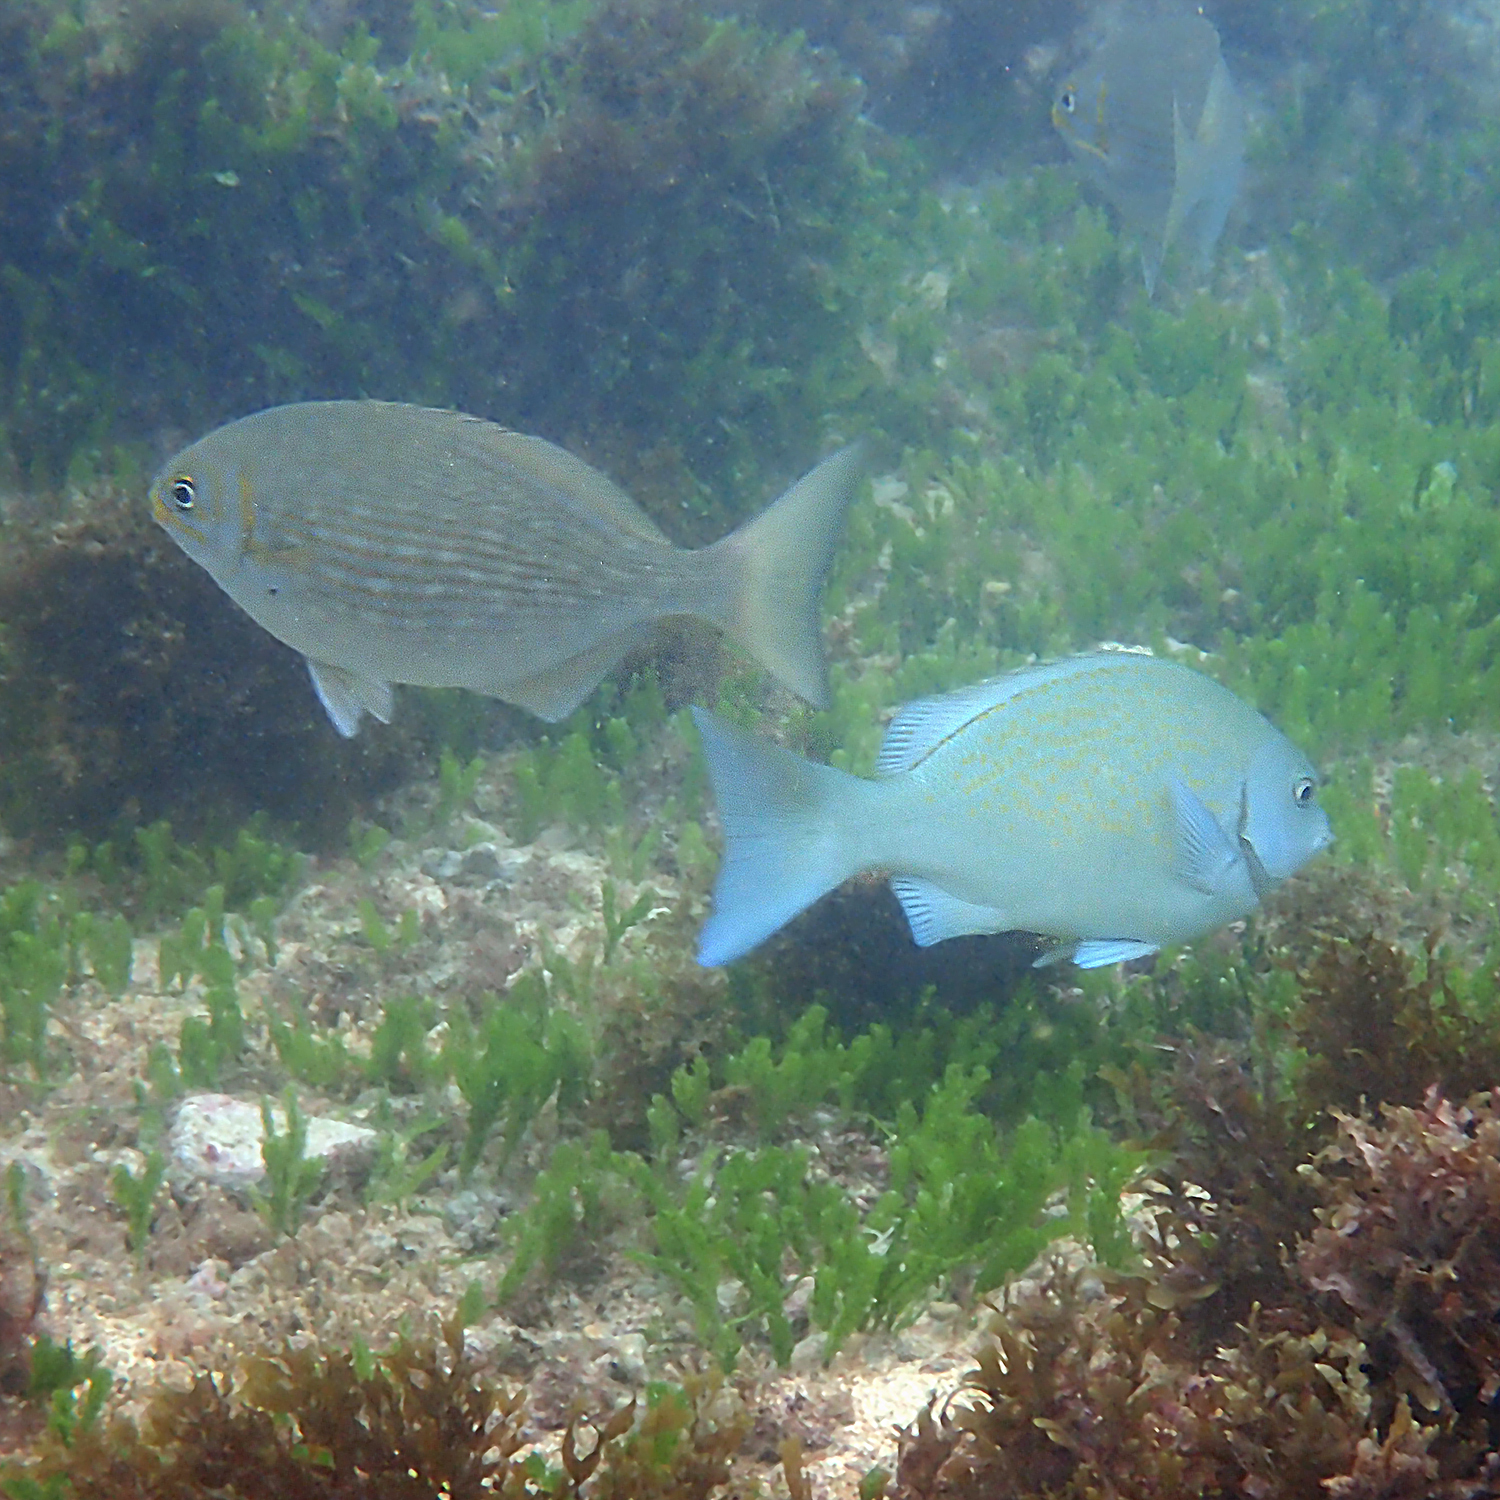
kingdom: Animalia
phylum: Chordata
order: Perciformes
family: Kyphosidae
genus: Kyphosus
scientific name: Kyphosus vaigiensis
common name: Brassy chub
